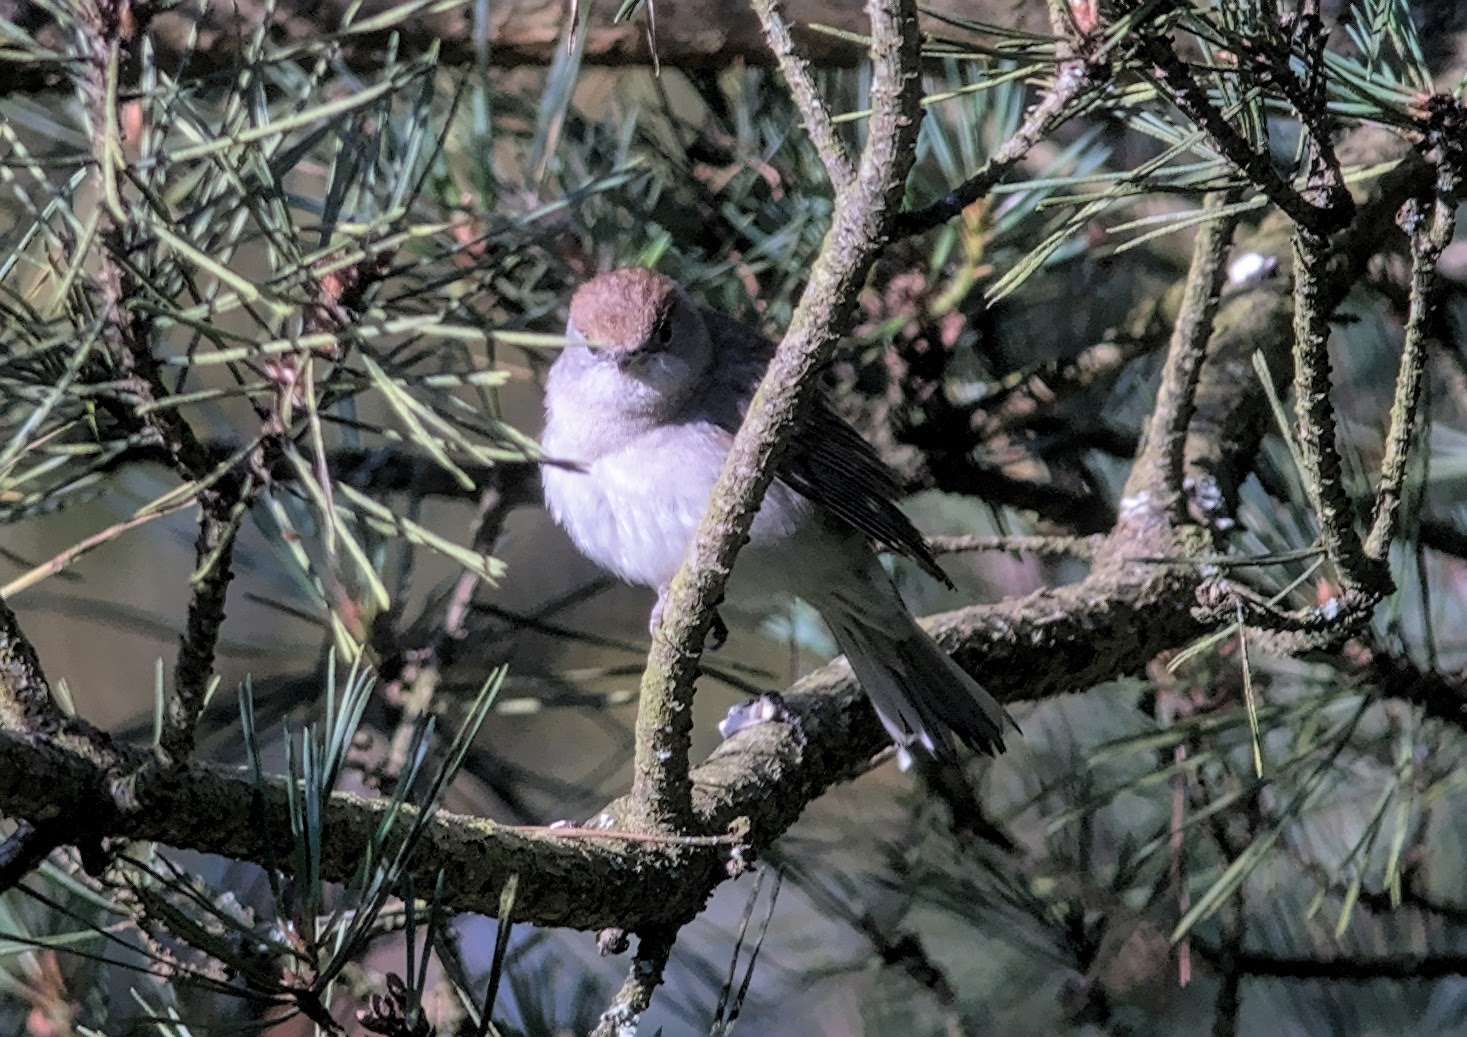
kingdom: Animalia
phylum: Chordata
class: Aves
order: Passeriformes
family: Sylviidae
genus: Sylvia
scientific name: Sylvia atricapilla
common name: Eurasian blackcap
